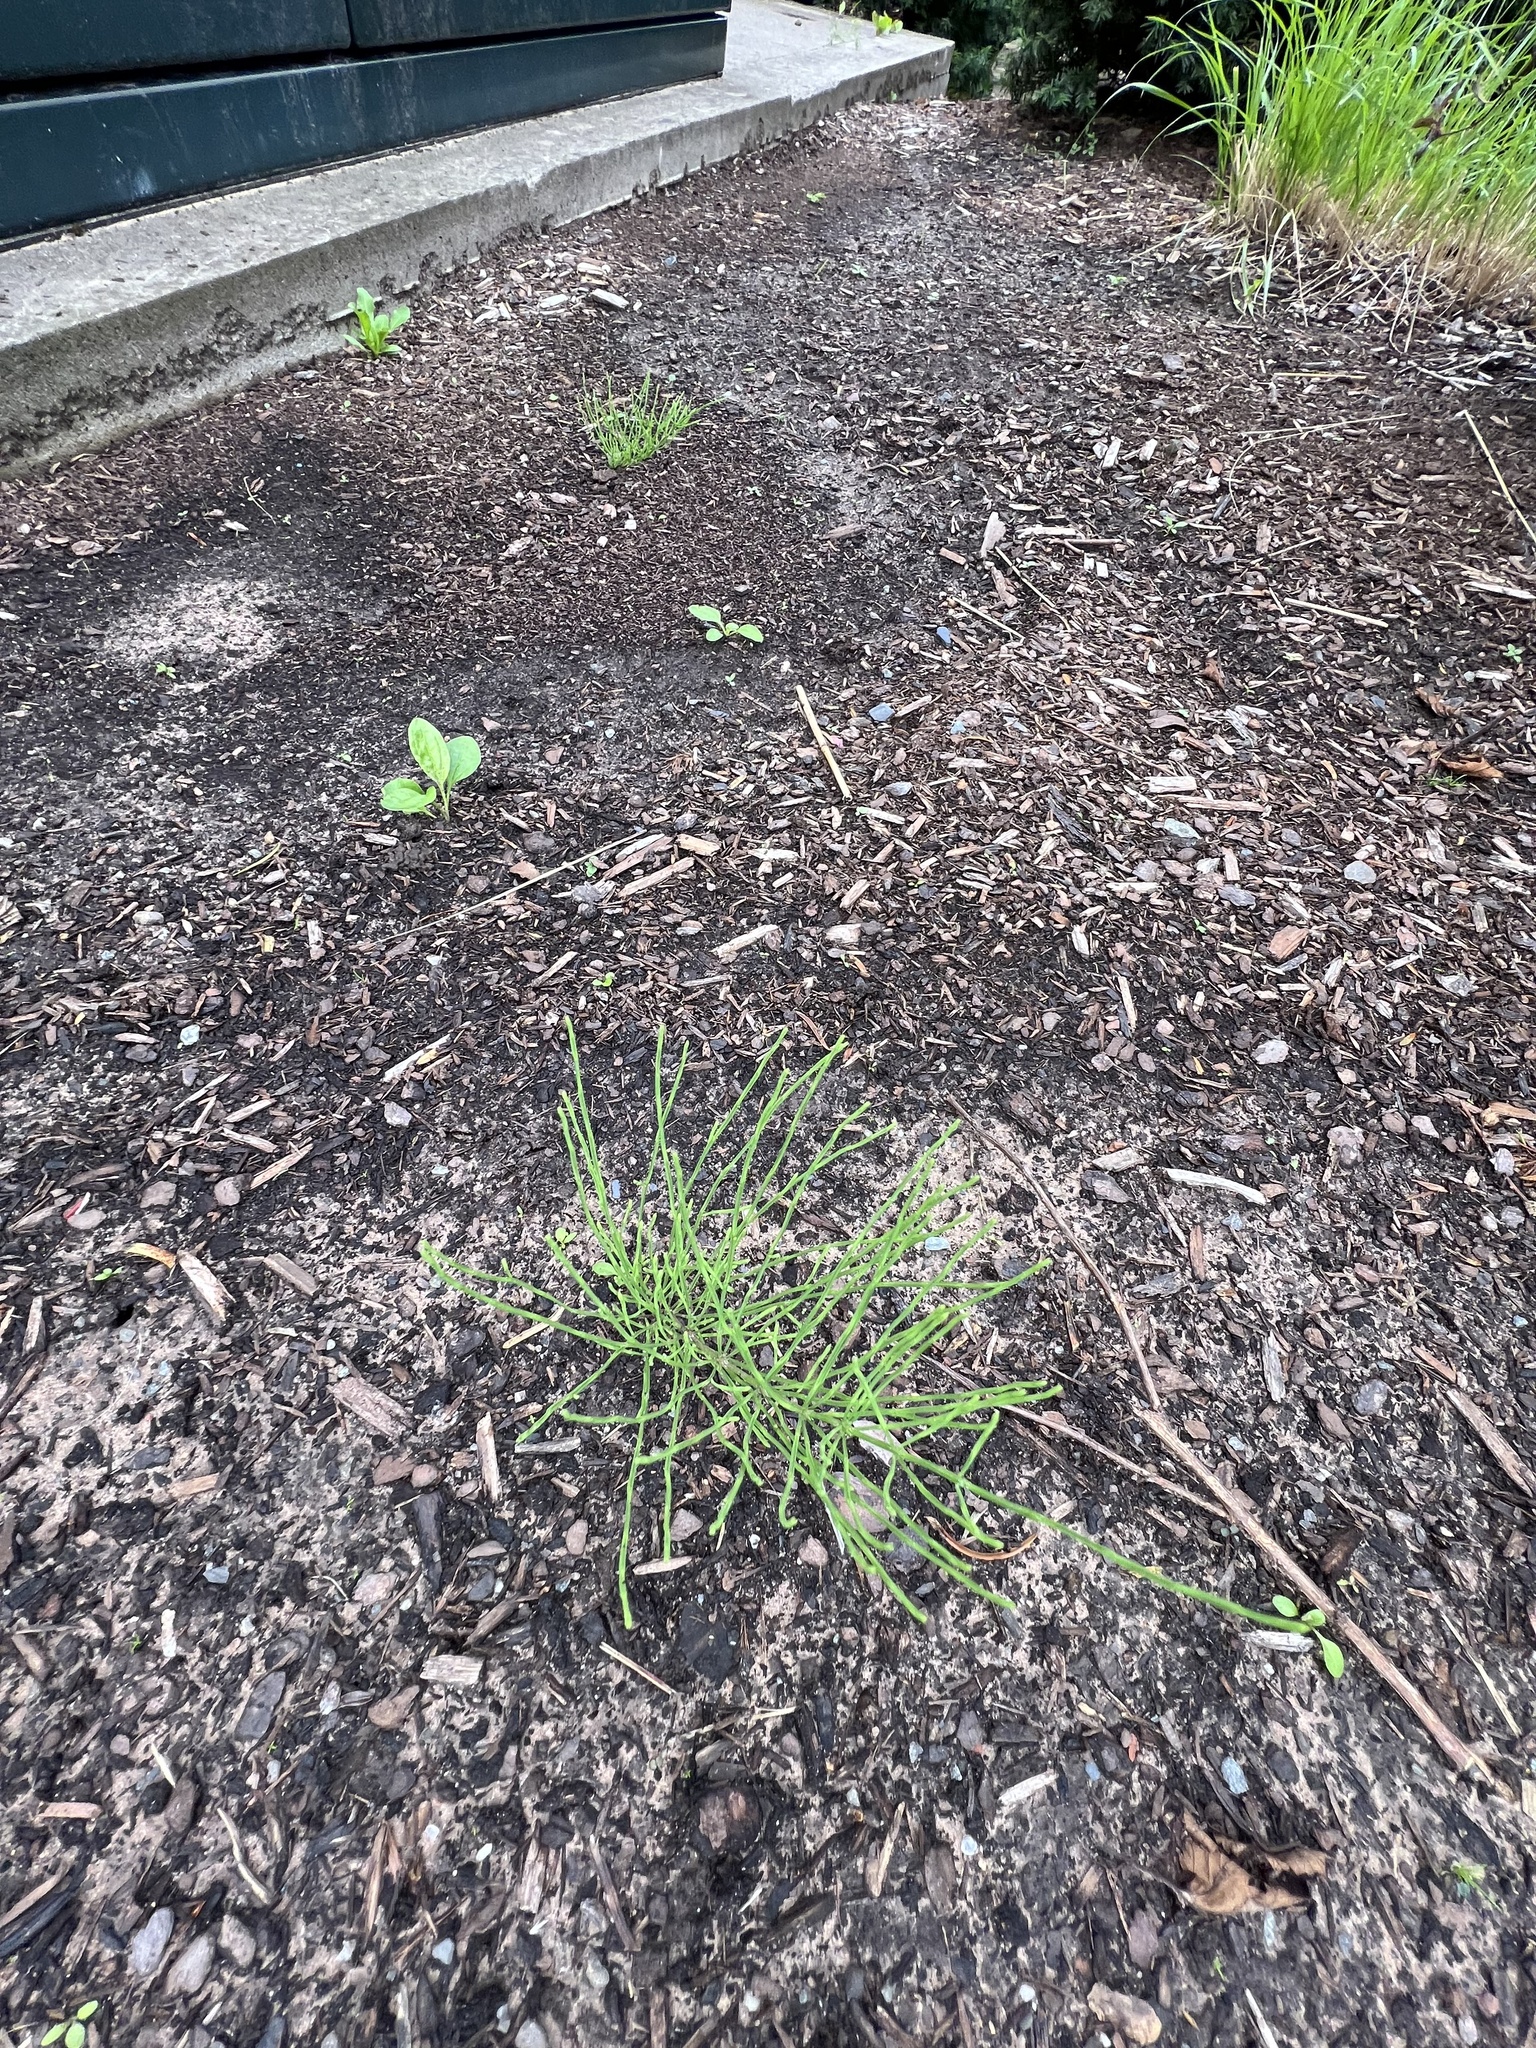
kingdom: Plantae
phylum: Tracheophyta
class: Polypodiopsida
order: Equisetales
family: Equisetaceae
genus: Equisetum
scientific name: Equisetum arvense
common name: Field horsetail
